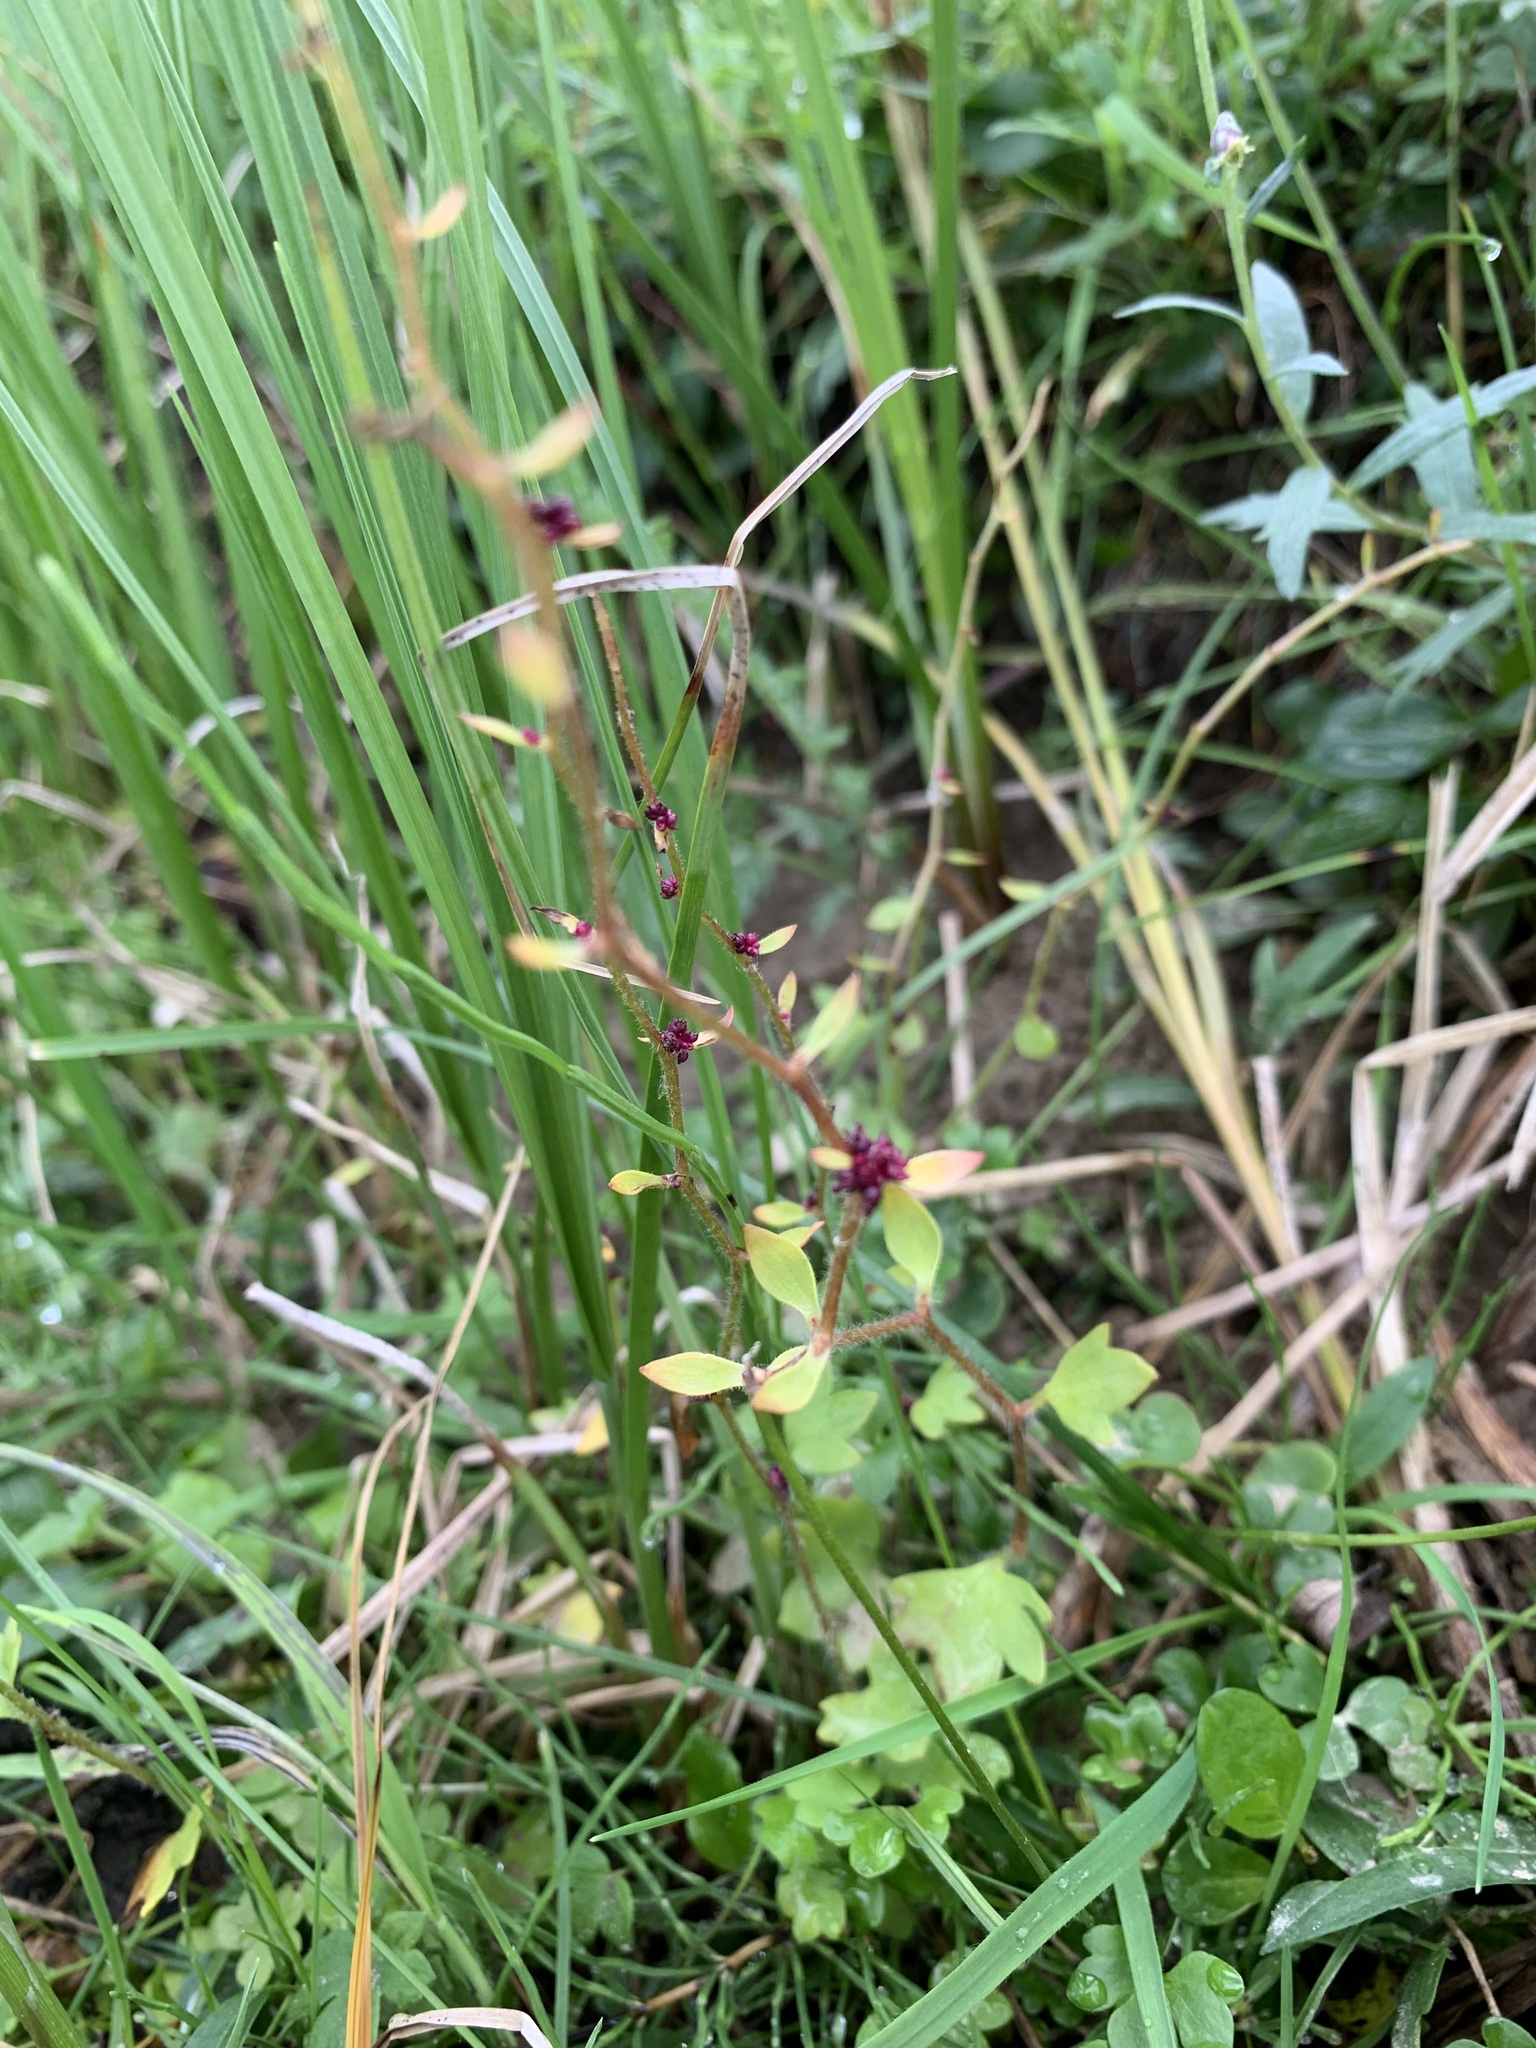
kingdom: Plantae
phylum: Tracheophyta
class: Magnoliopsida
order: Saxifragales
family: Saxifragaceae
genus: Saxifraga
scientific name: Saxifraga cernua
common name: Drooping saxifrage
